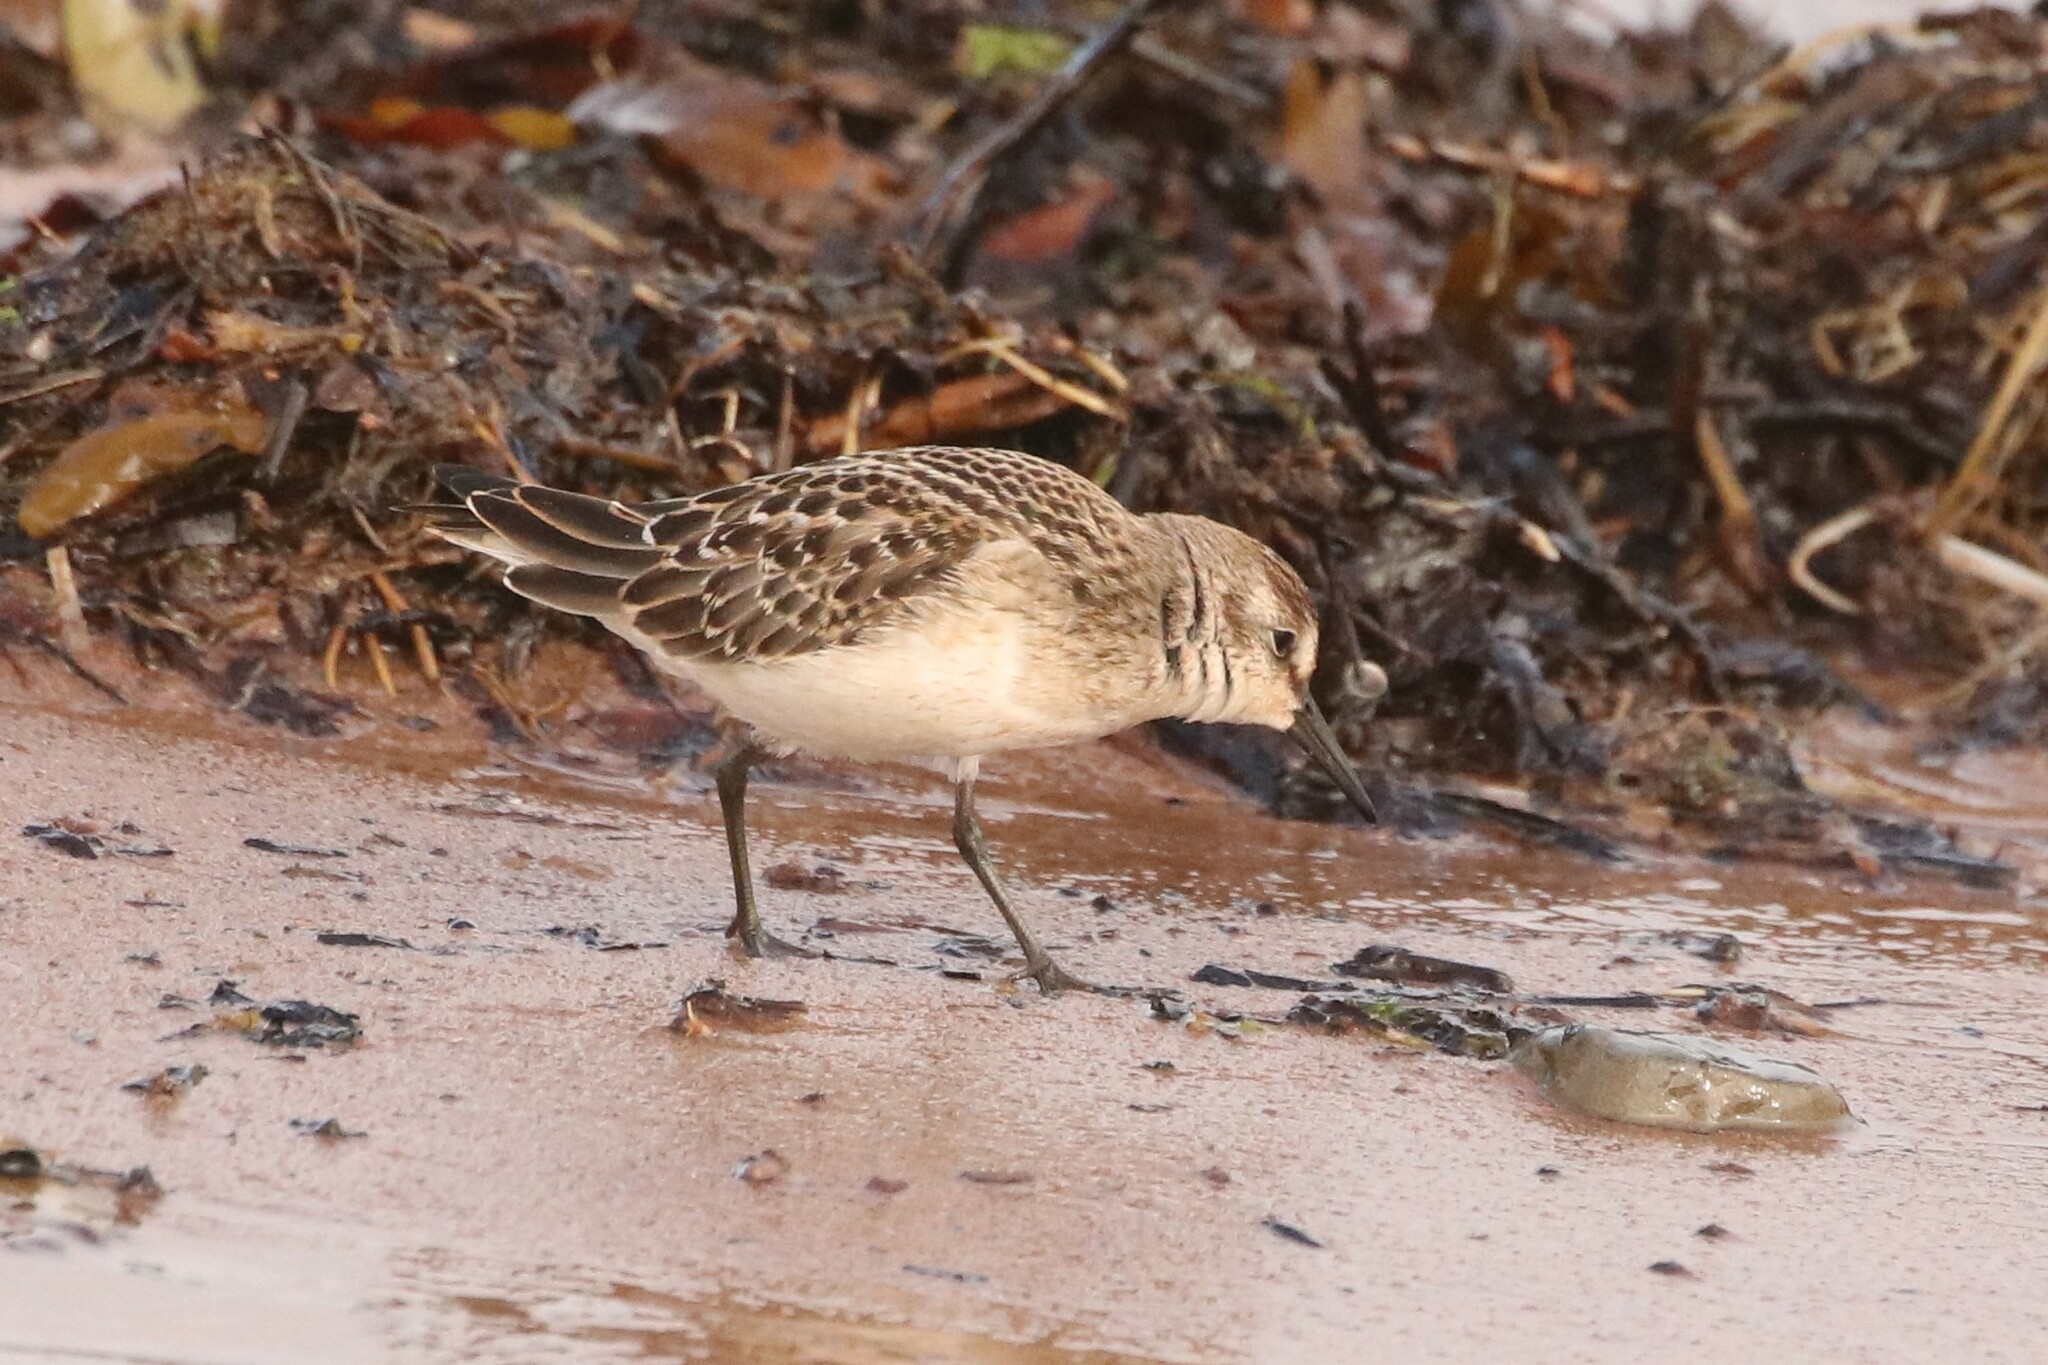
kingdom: Animalia
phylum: Chordata
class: Aves
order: Charadriiformes
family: Scolopacidae
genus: Calidris
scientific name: Calidris pusilla
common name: Semipalmated sandpiper
